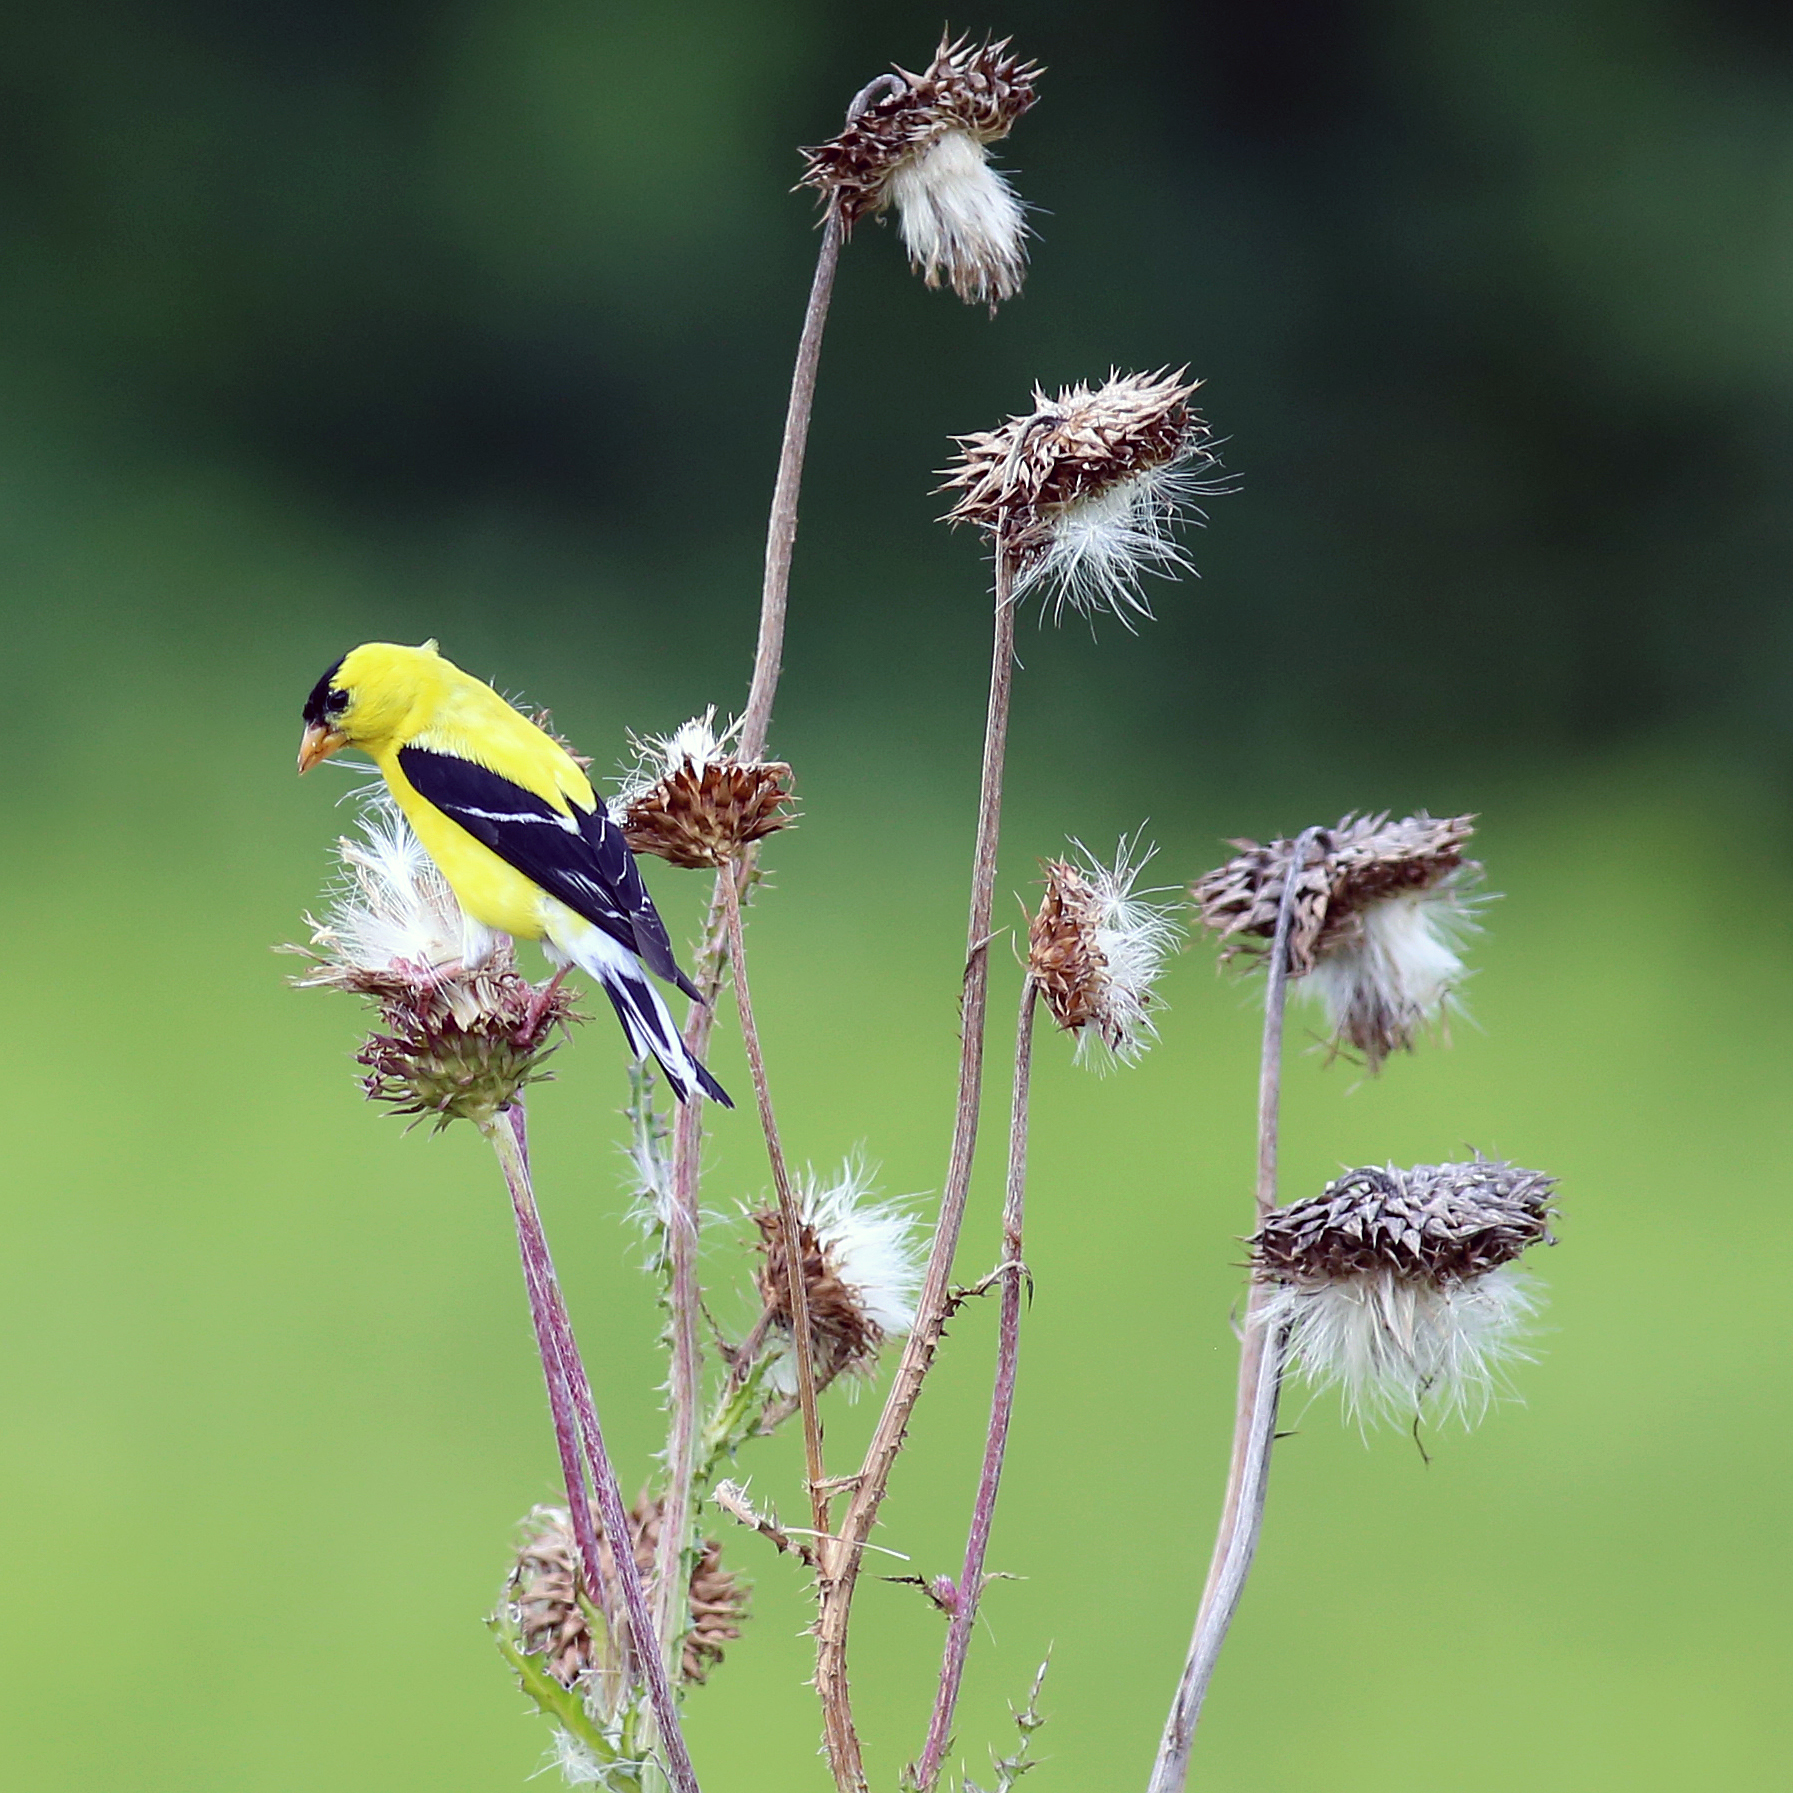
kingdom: Animalia
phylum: Chordata
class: Aves
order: Passeriformes
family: Fringillidae
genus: Spinus
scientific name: Spinus tristis
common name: American goldfinch
